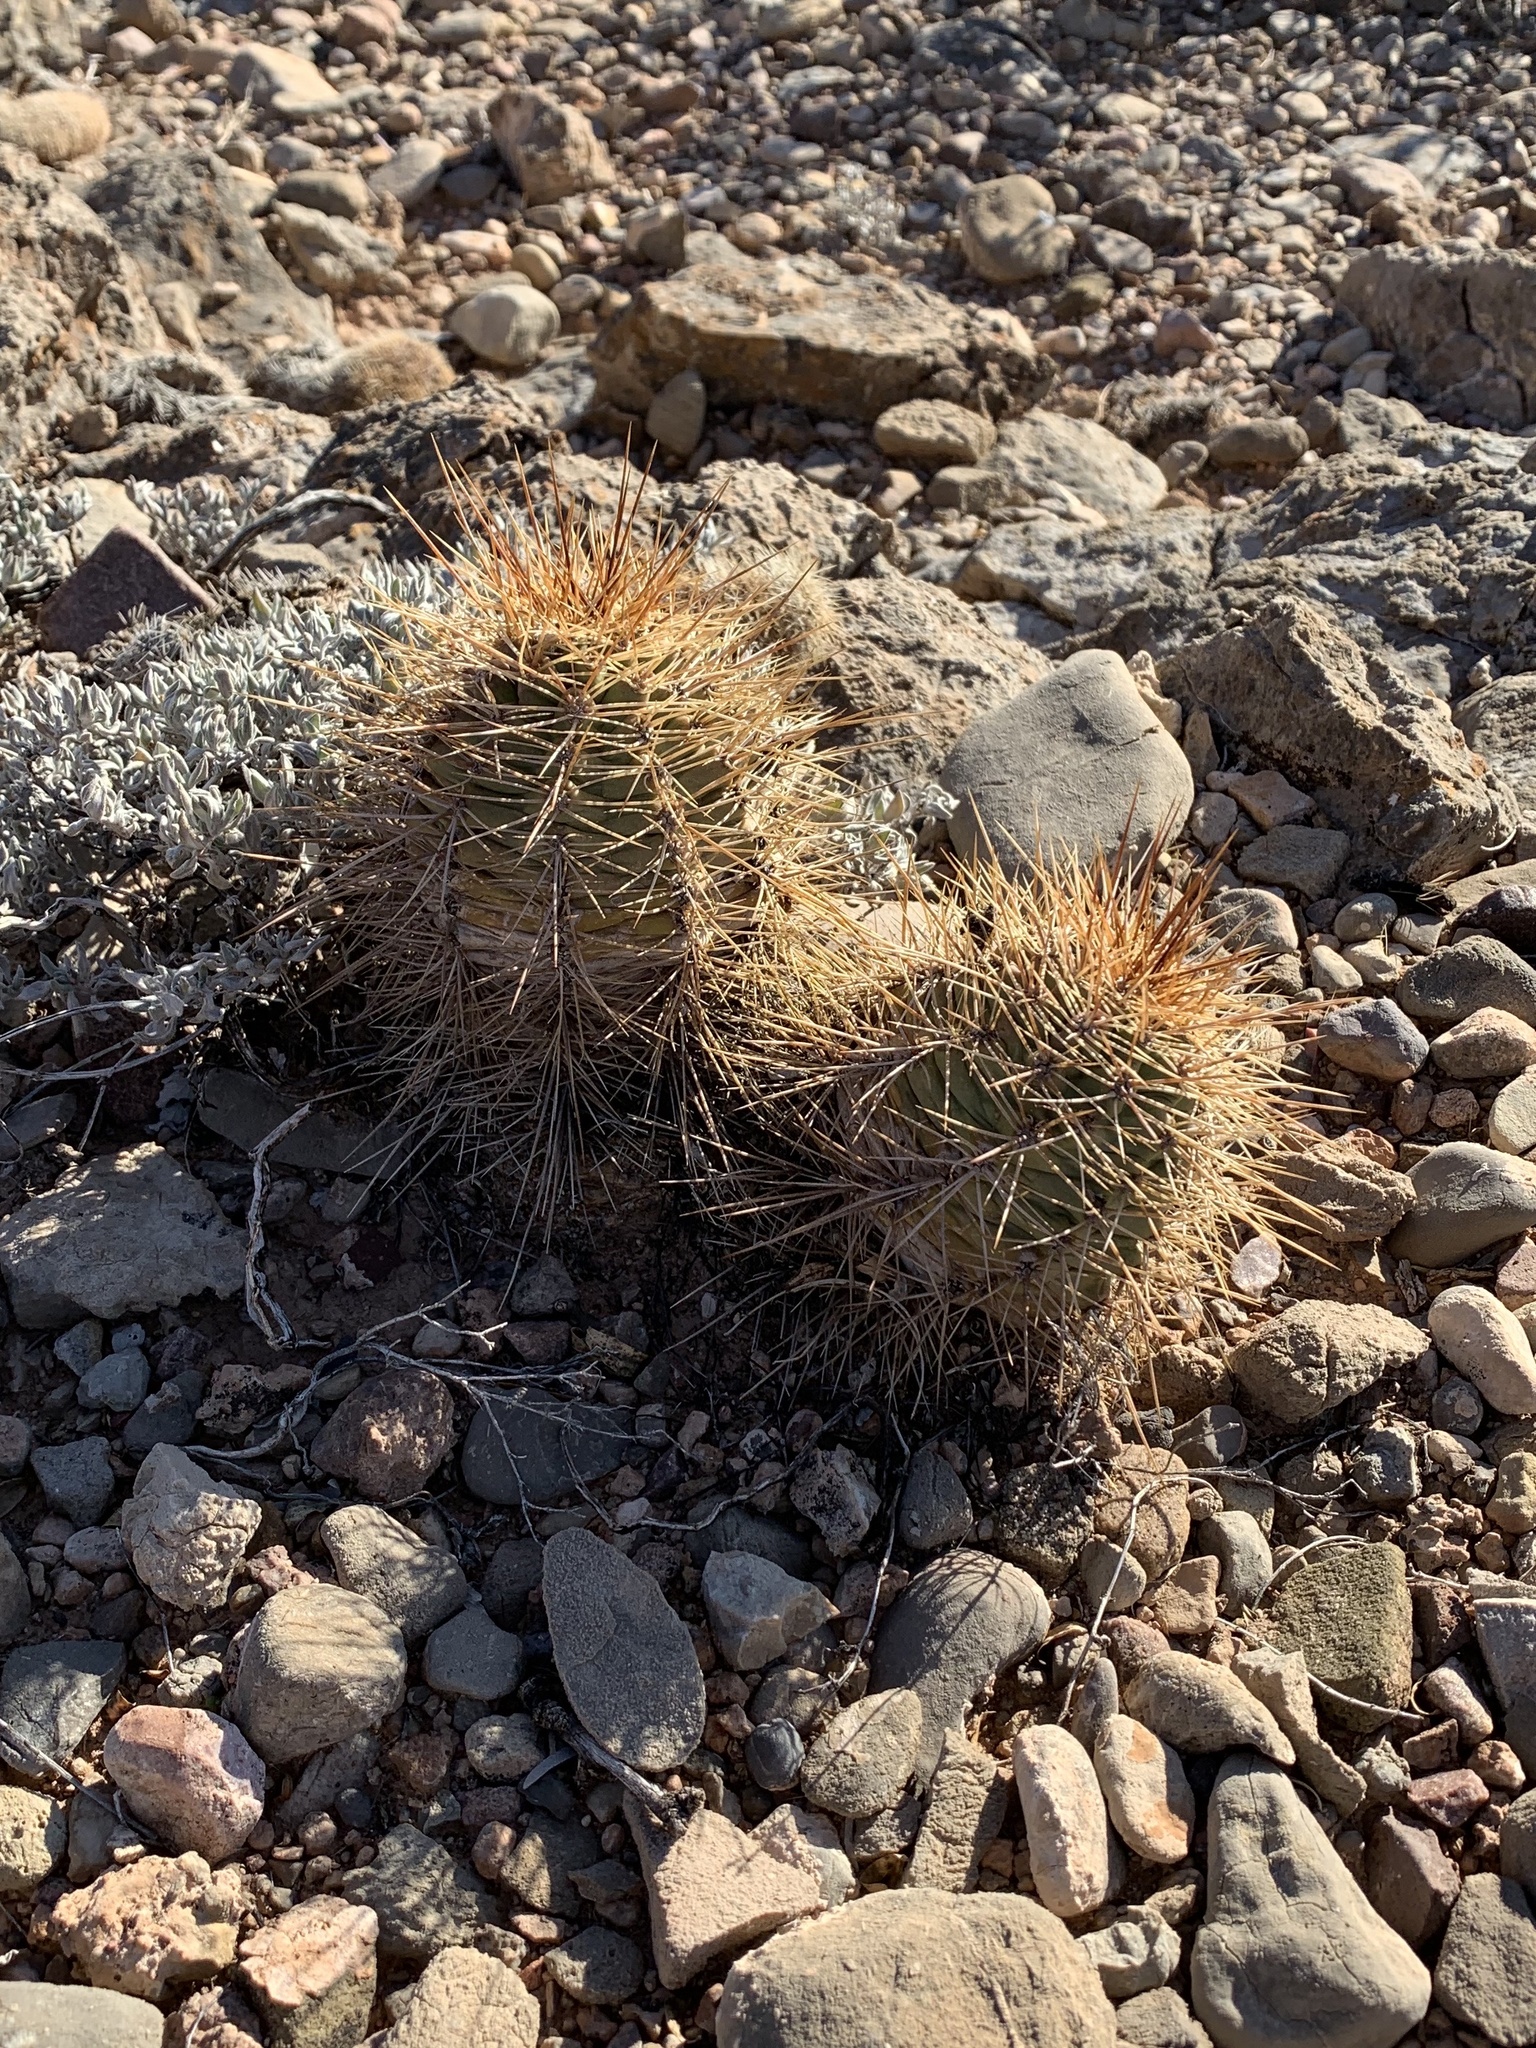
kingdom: Plantae
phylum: Tracheophyta
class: Magnoliopsida
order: Caryophyllales
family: Cactaceae
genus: Echinocereus
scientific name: Echinocereus coccineus
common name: Scarlet hedgehog cactus
